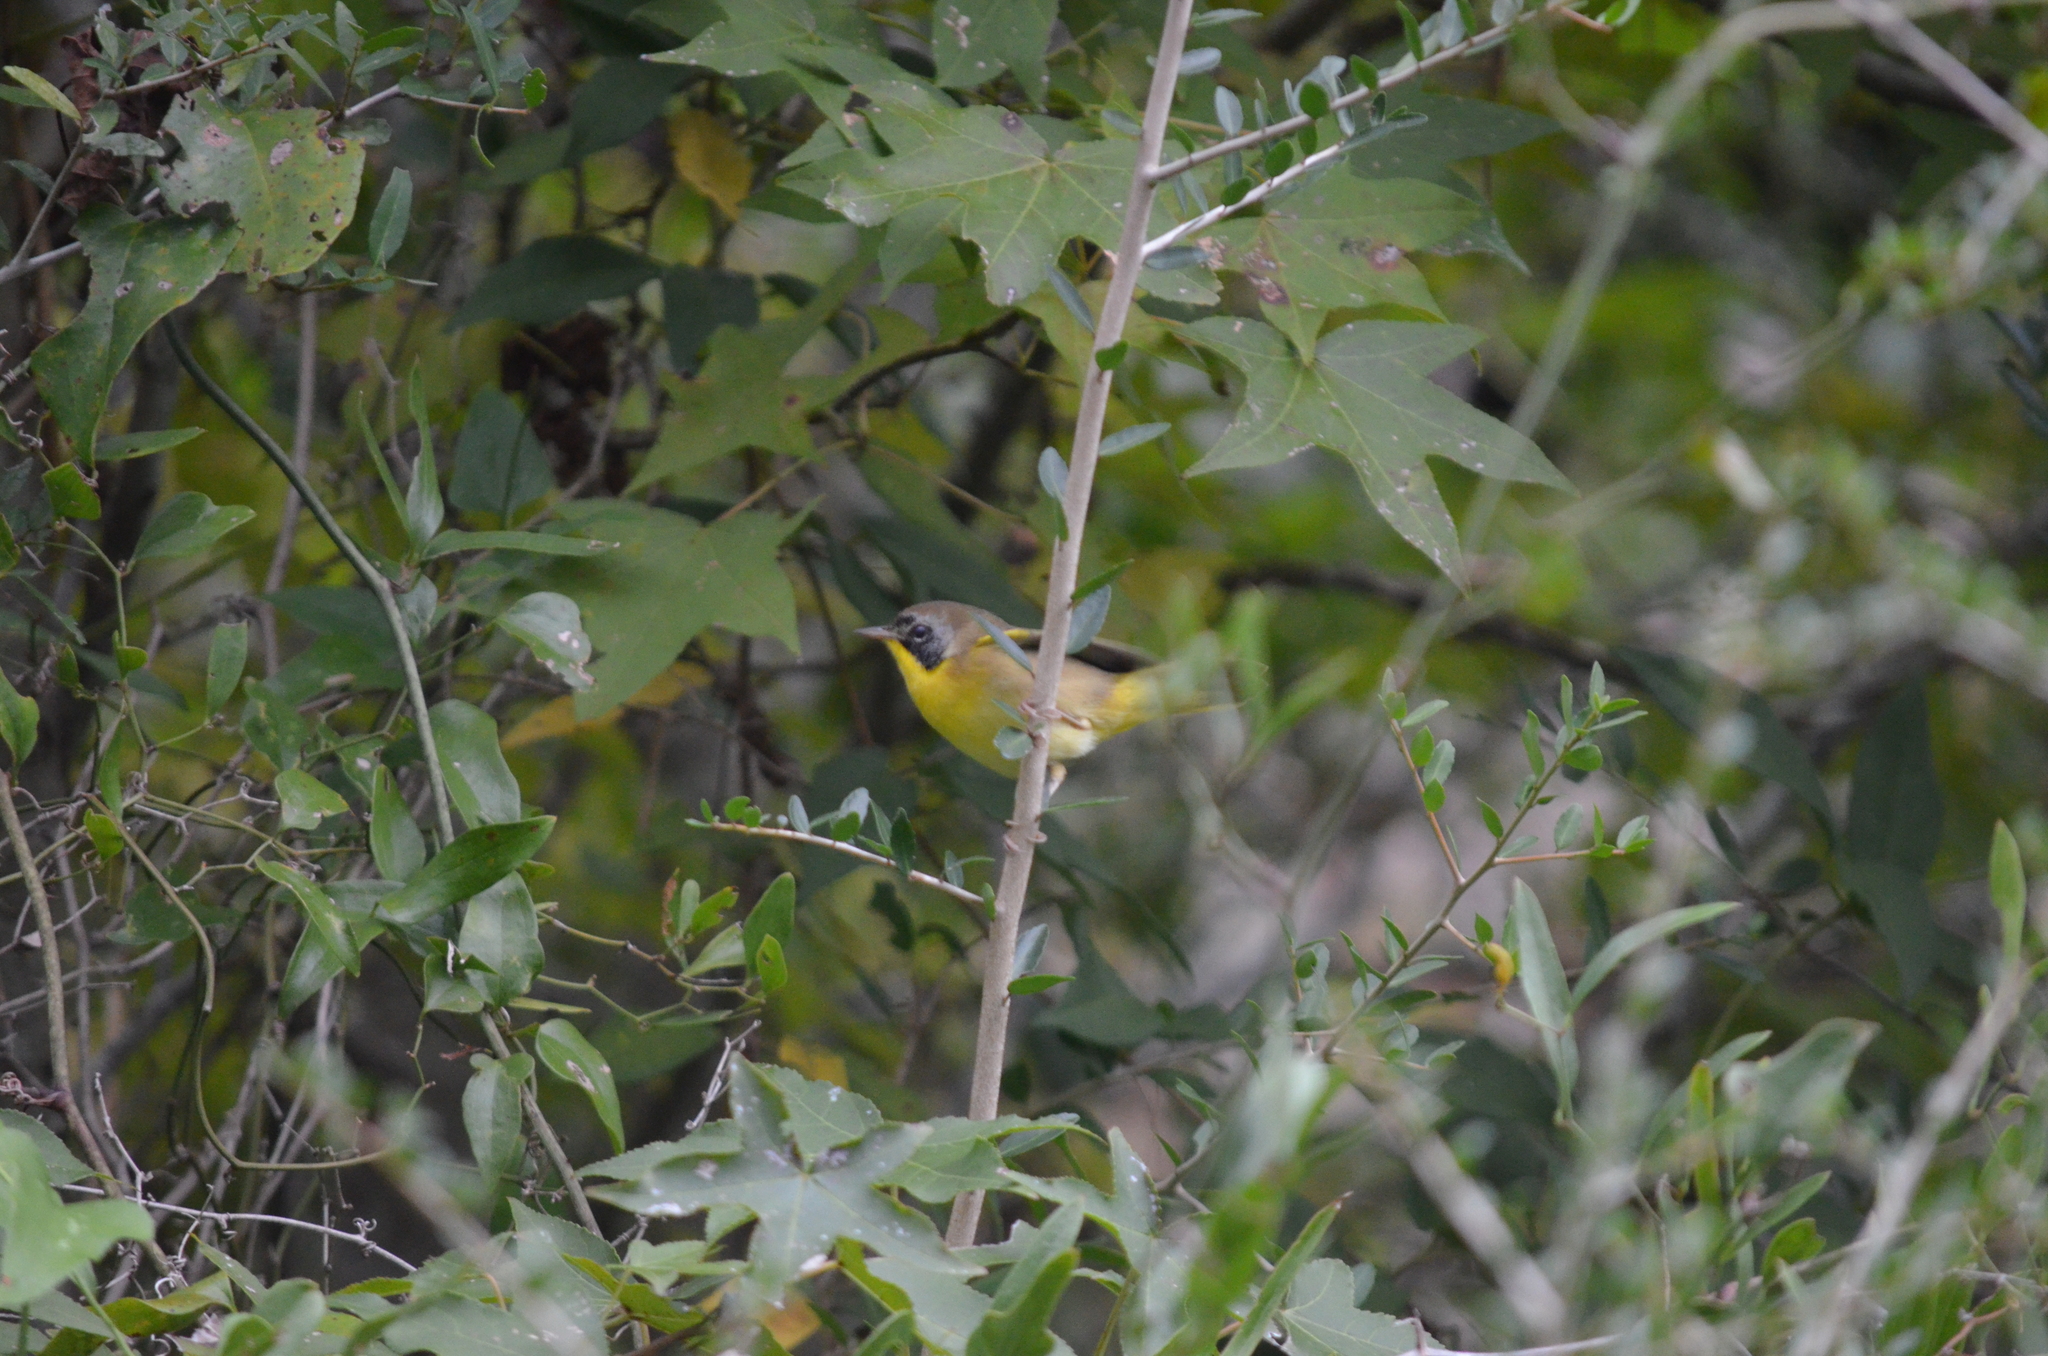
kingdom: Animalia
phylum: Chordata
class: Aves
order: Passeriformes
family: Parulidae
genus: Geothlypis
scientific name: Geothlypis trichas
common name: Common yellowthroat
